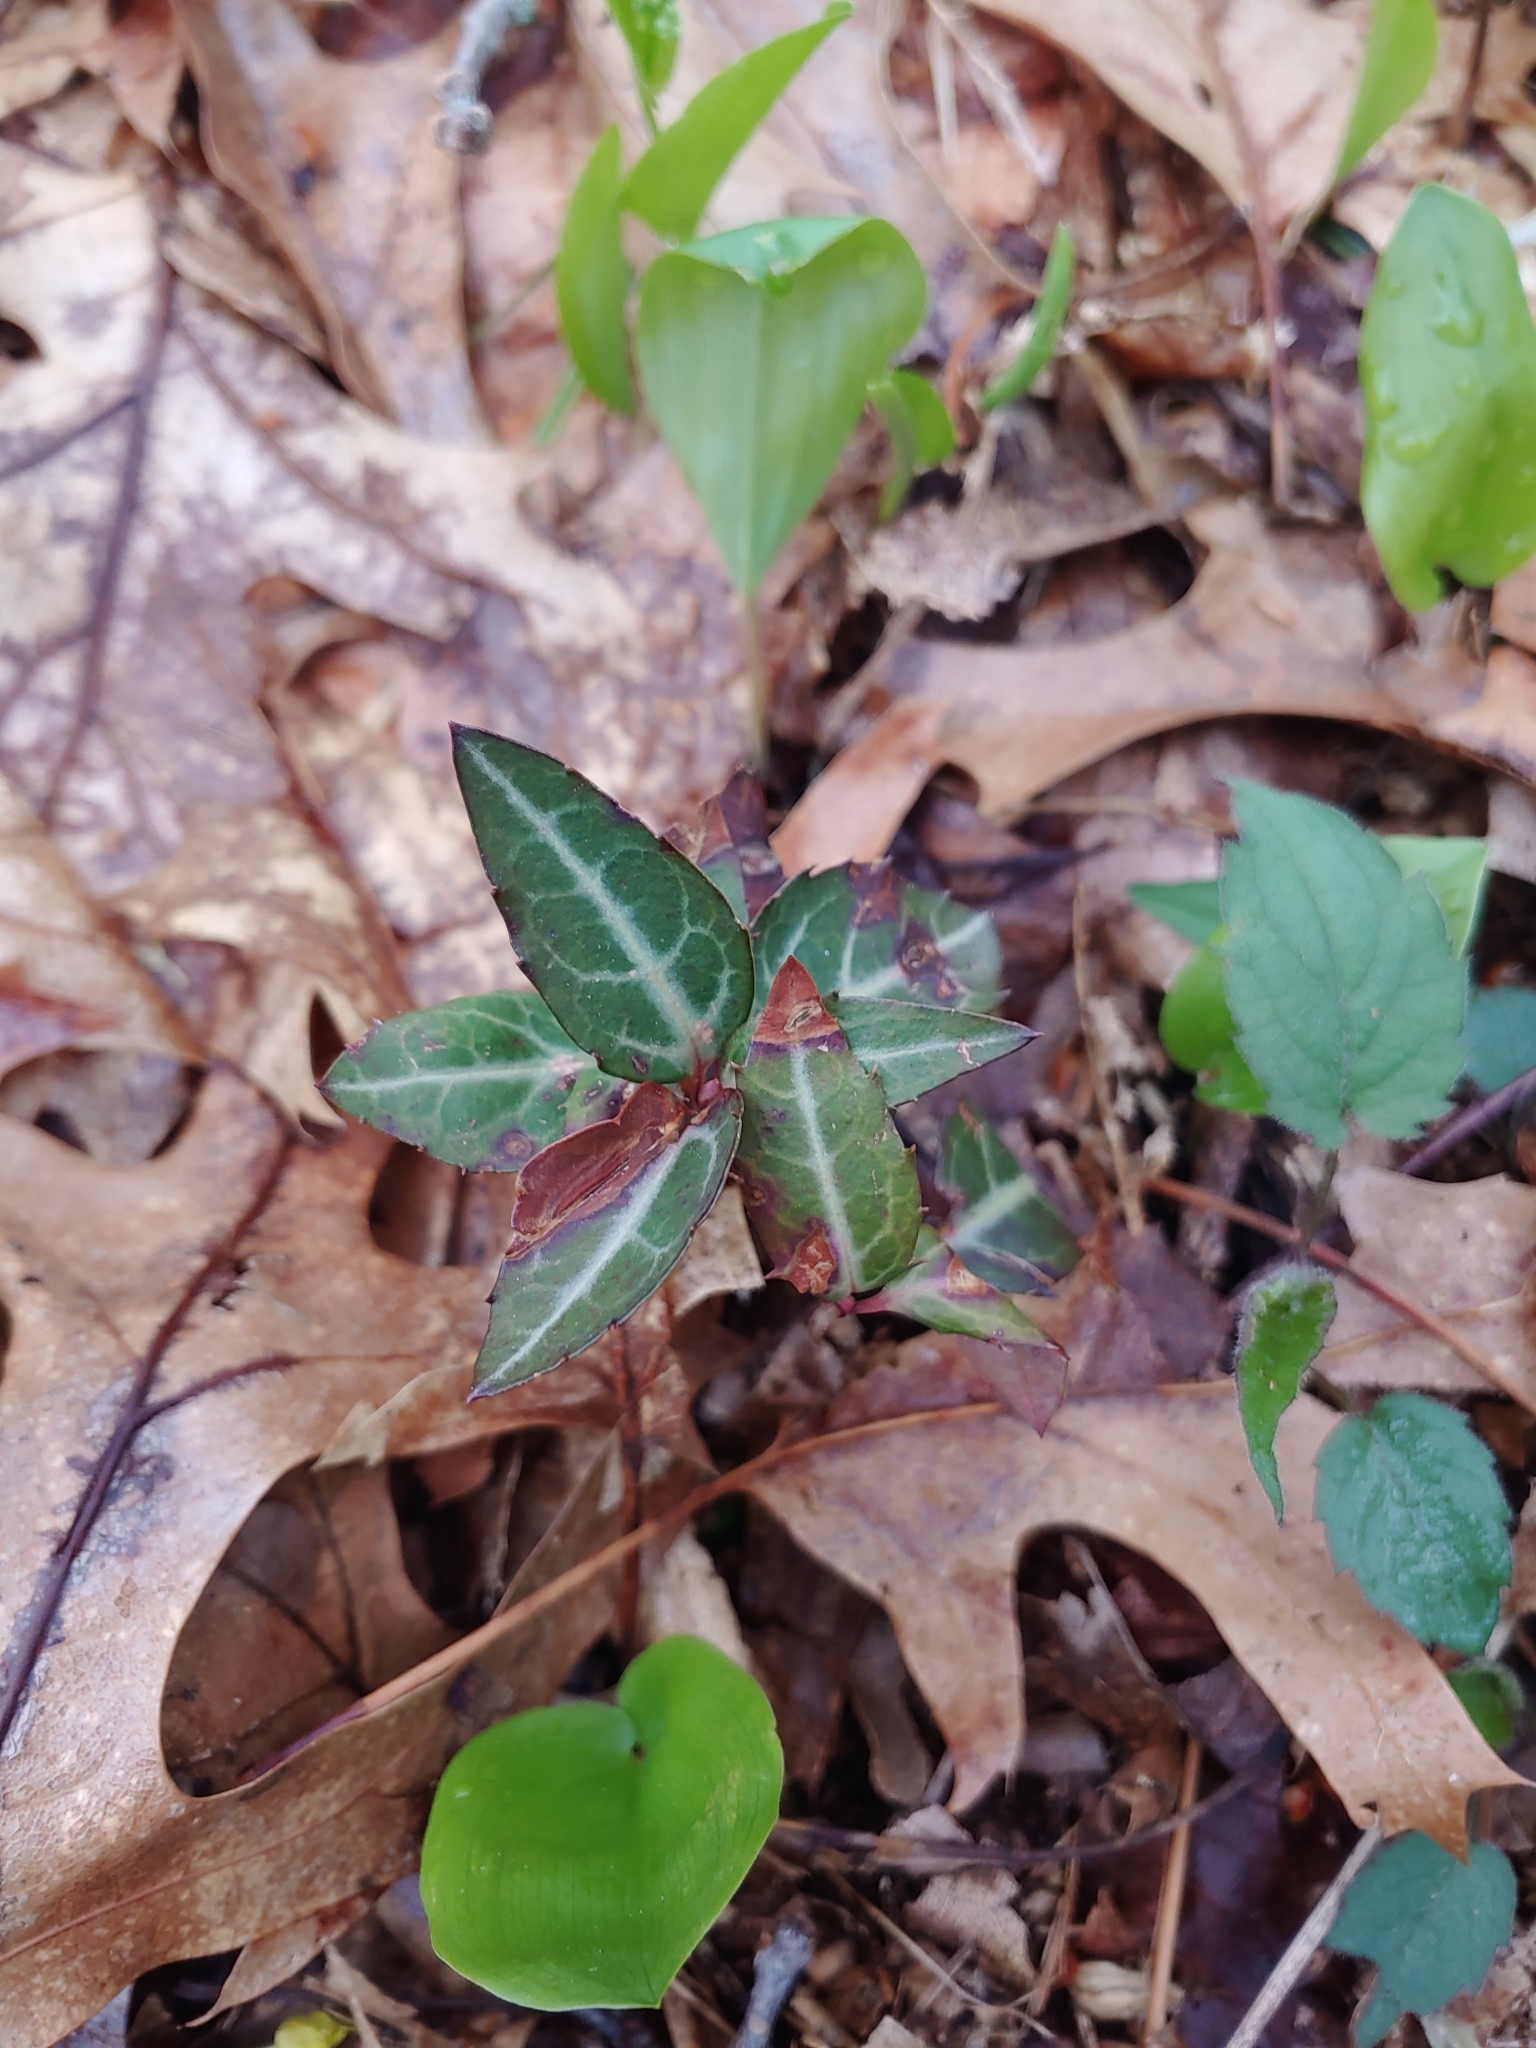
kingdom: Plantae
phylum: Tracheophyta
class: Magnoliopsida
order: Ericales
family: Ericaceae
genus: Chimaphila
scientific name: Chimaphila maculata
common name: Spotted pipsissewa
